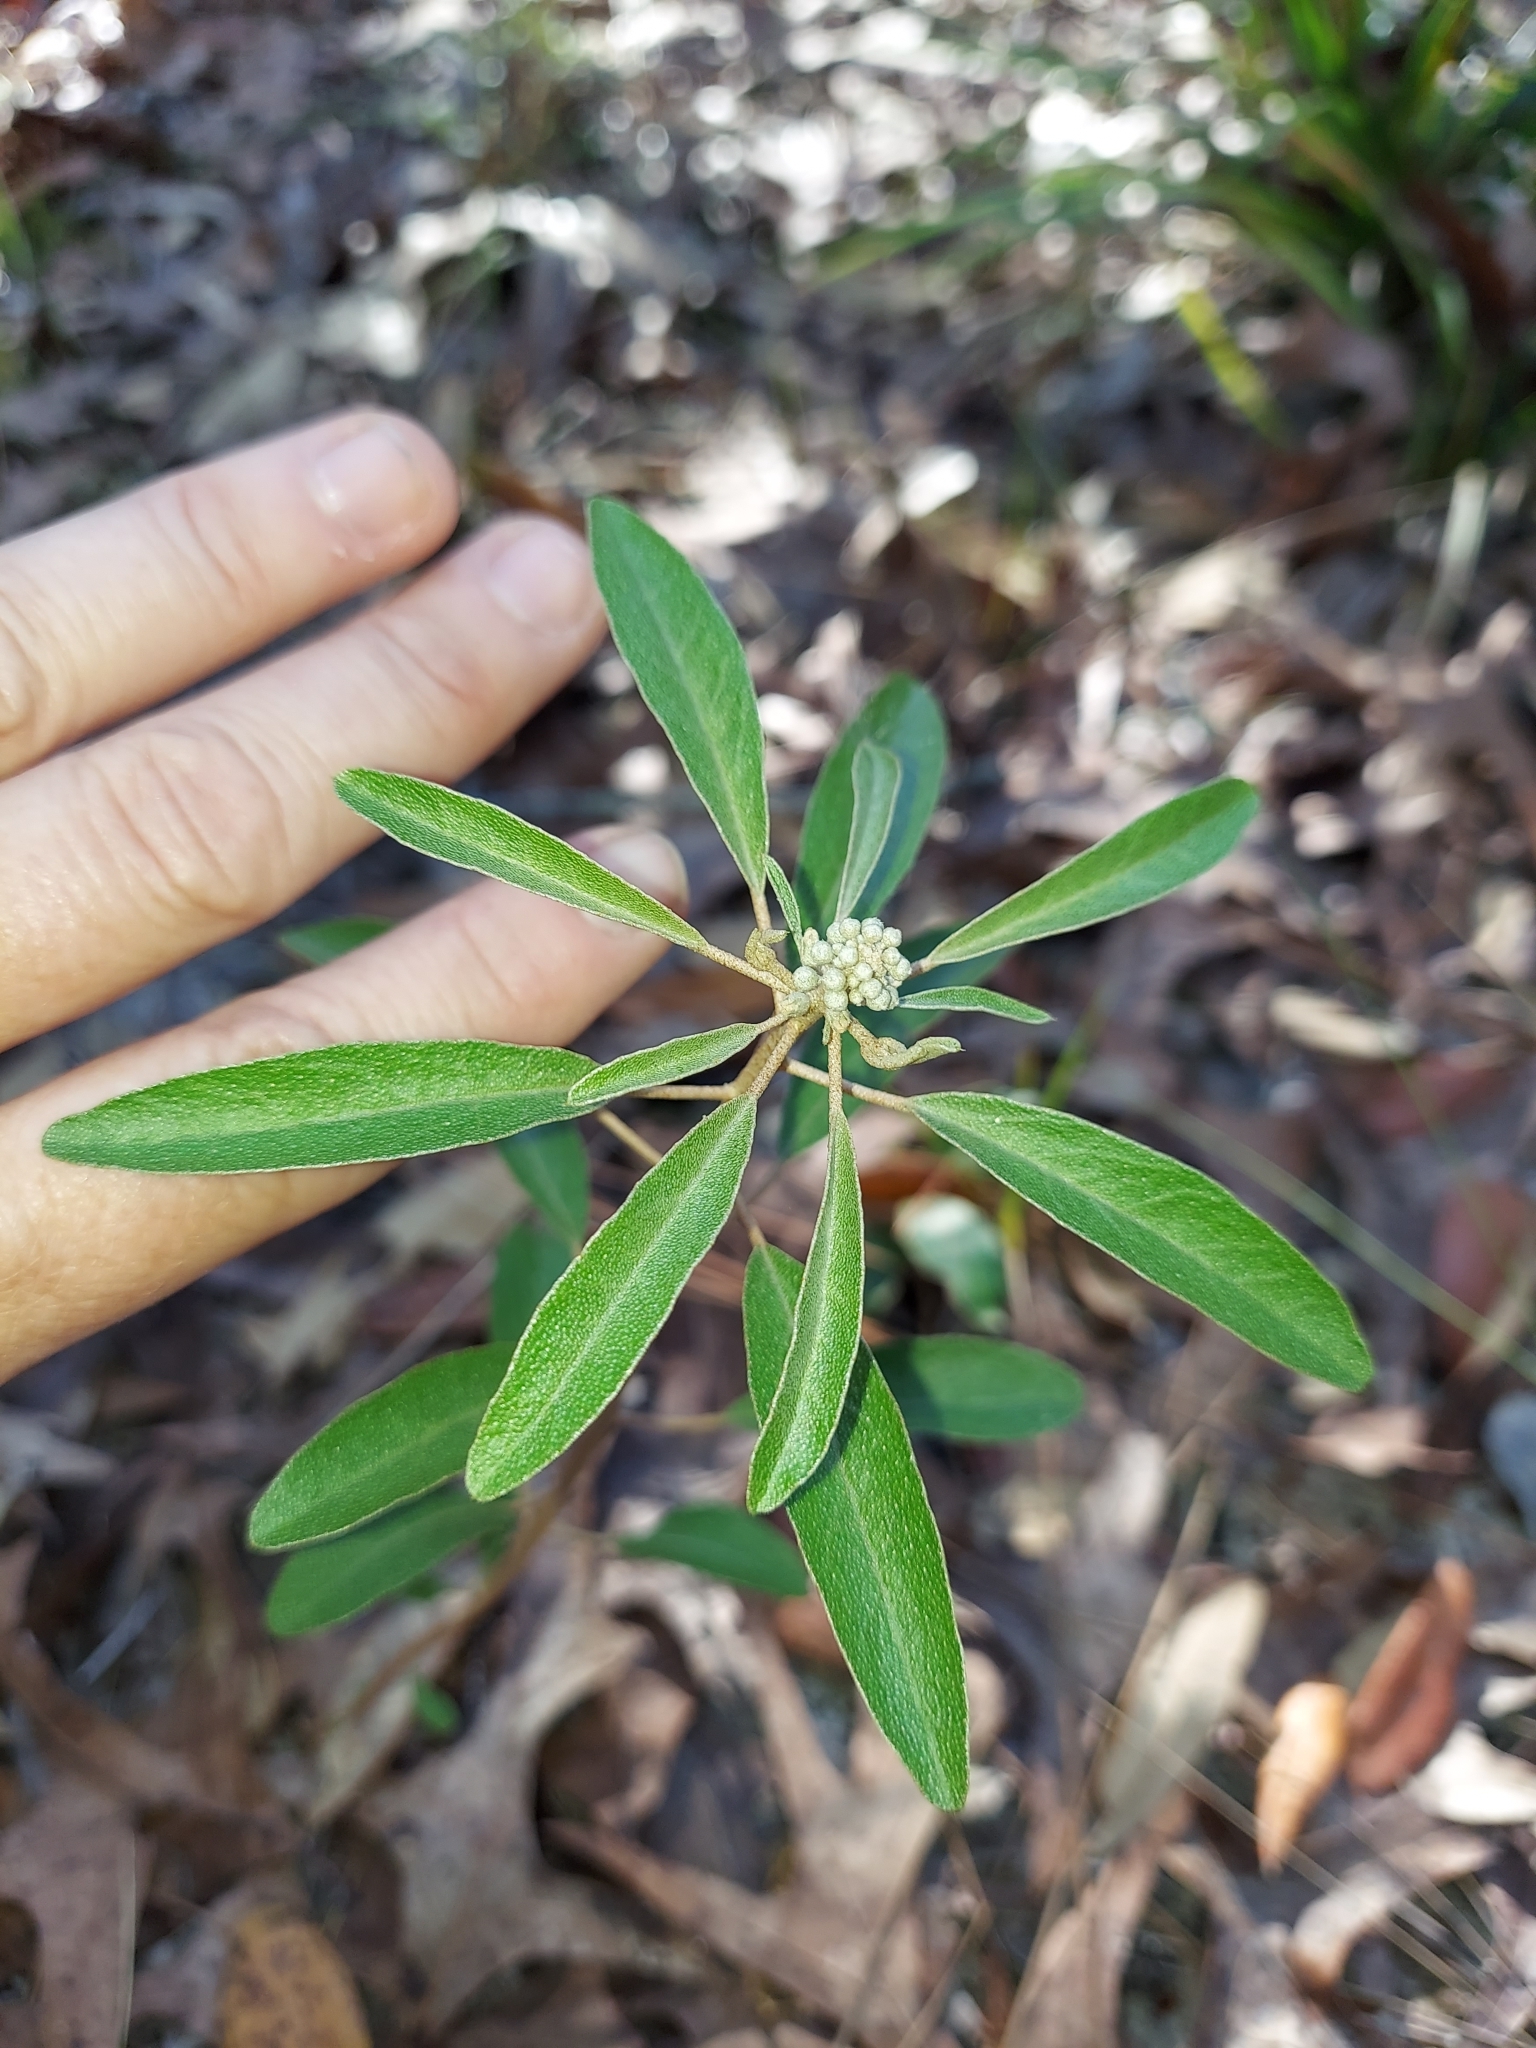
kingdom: Plantae
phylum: Tracheophyta
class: Magnoliopsida
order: Malpighiales
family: Euphorbiaceae
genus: Croton
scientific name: Croton argyranthemus
